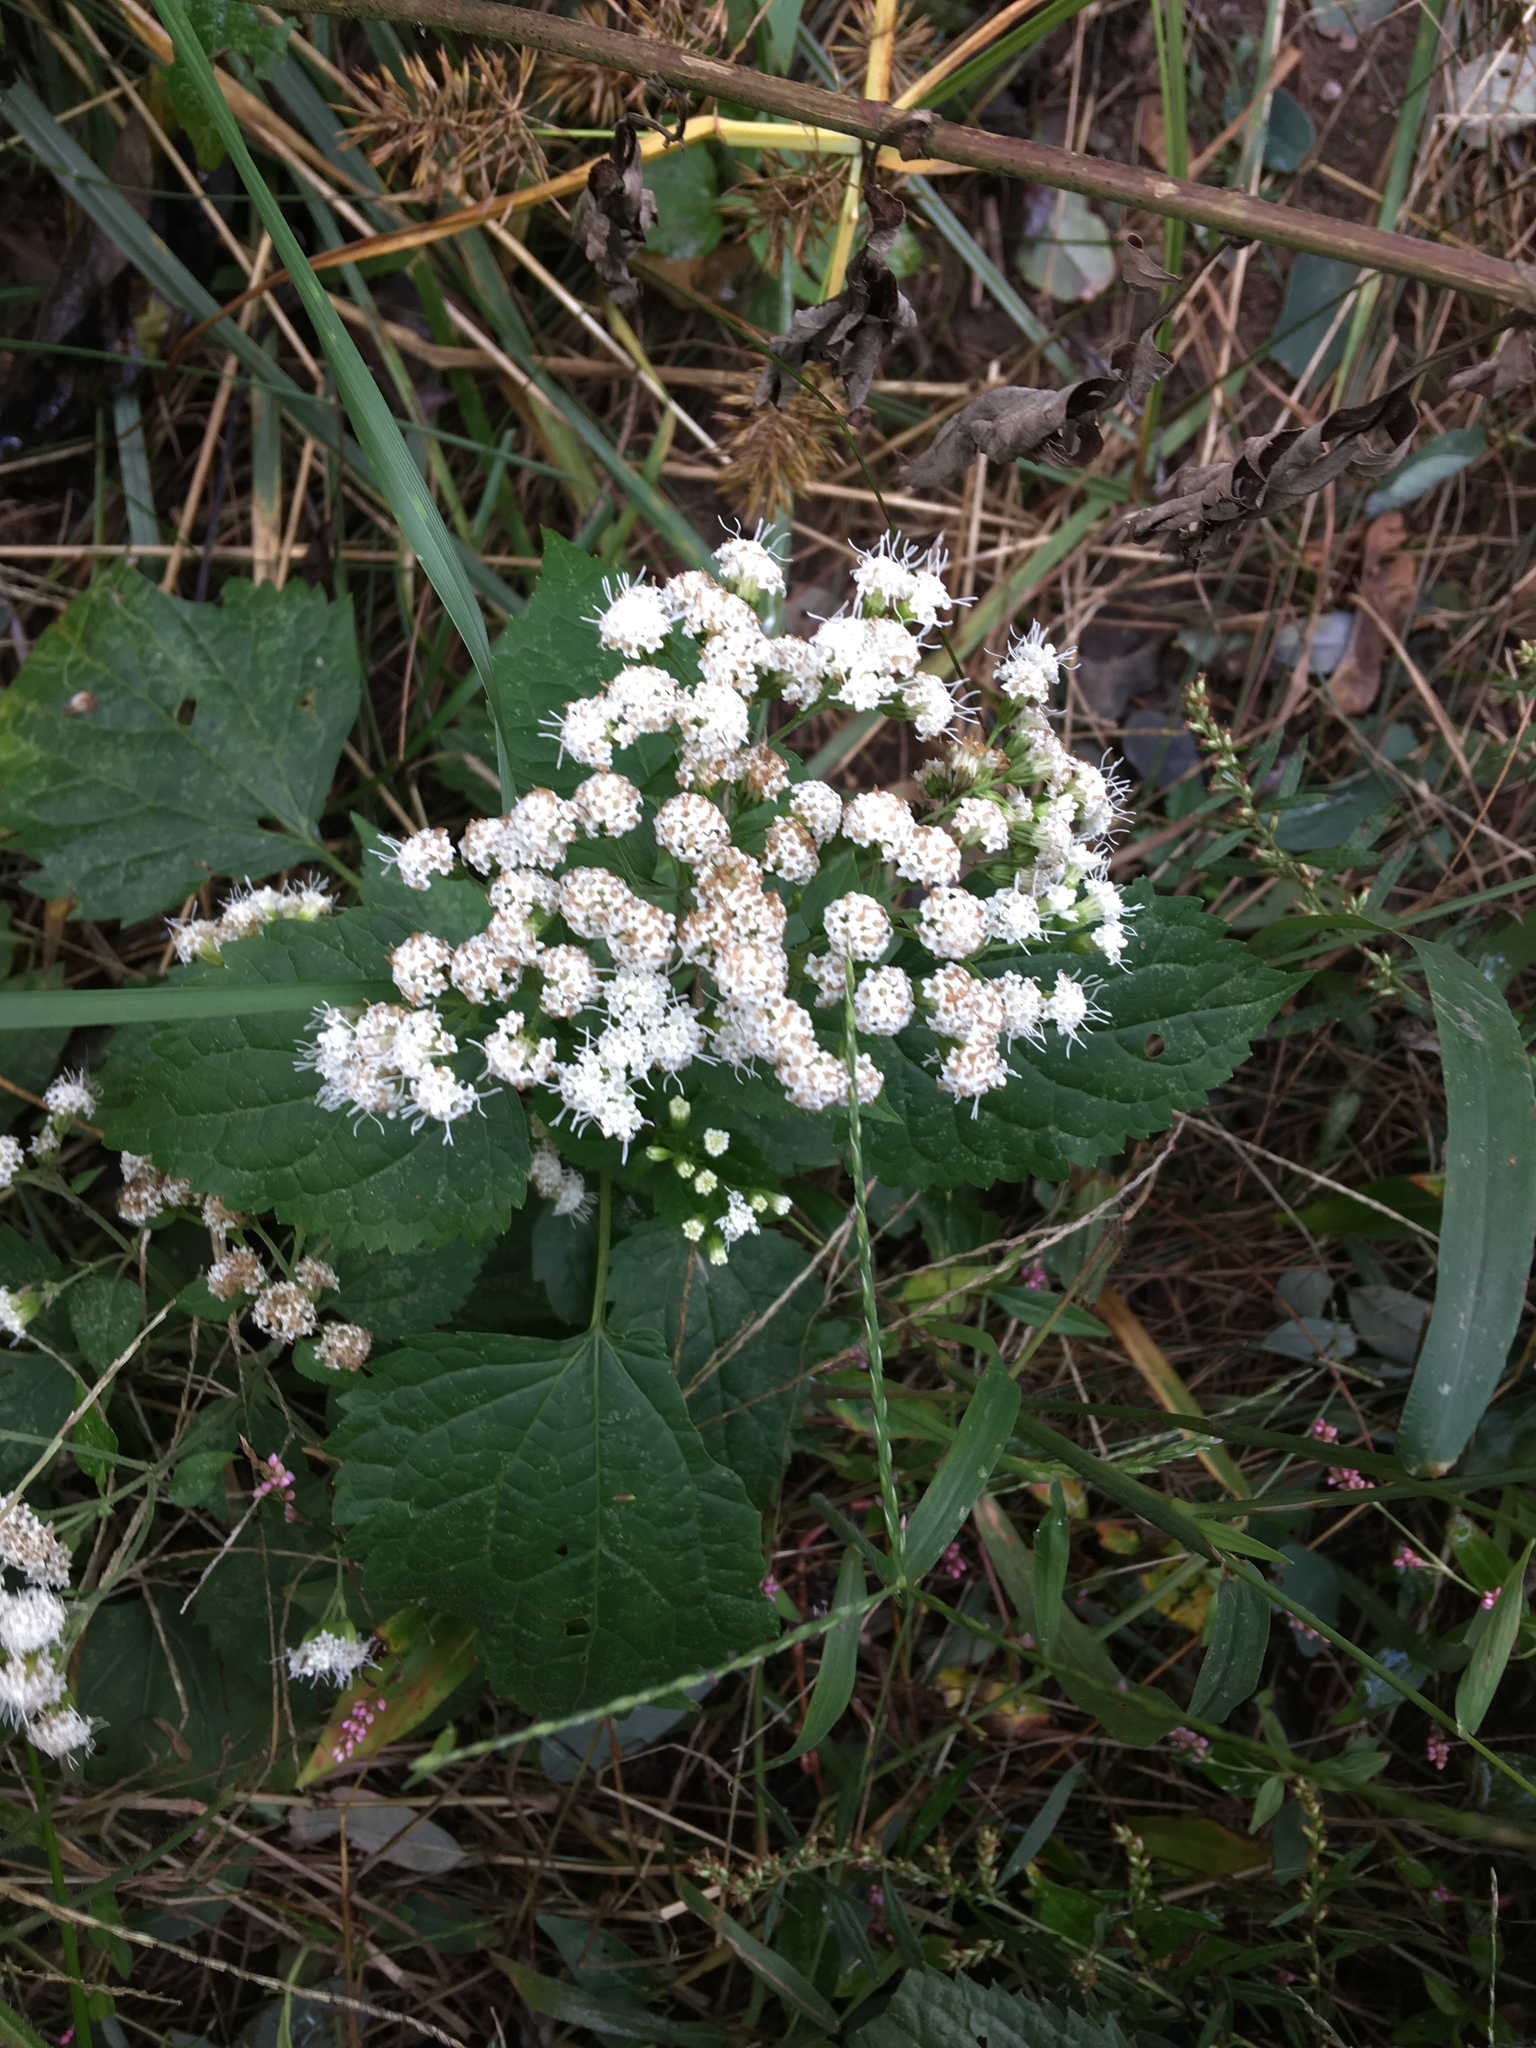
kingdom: Plantae
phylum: Tracheophyta
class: Magnoliopsida
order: Asterales
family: Asteraceae
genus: Ageratina
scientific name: Ageratina altissima
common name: White snakeroot
